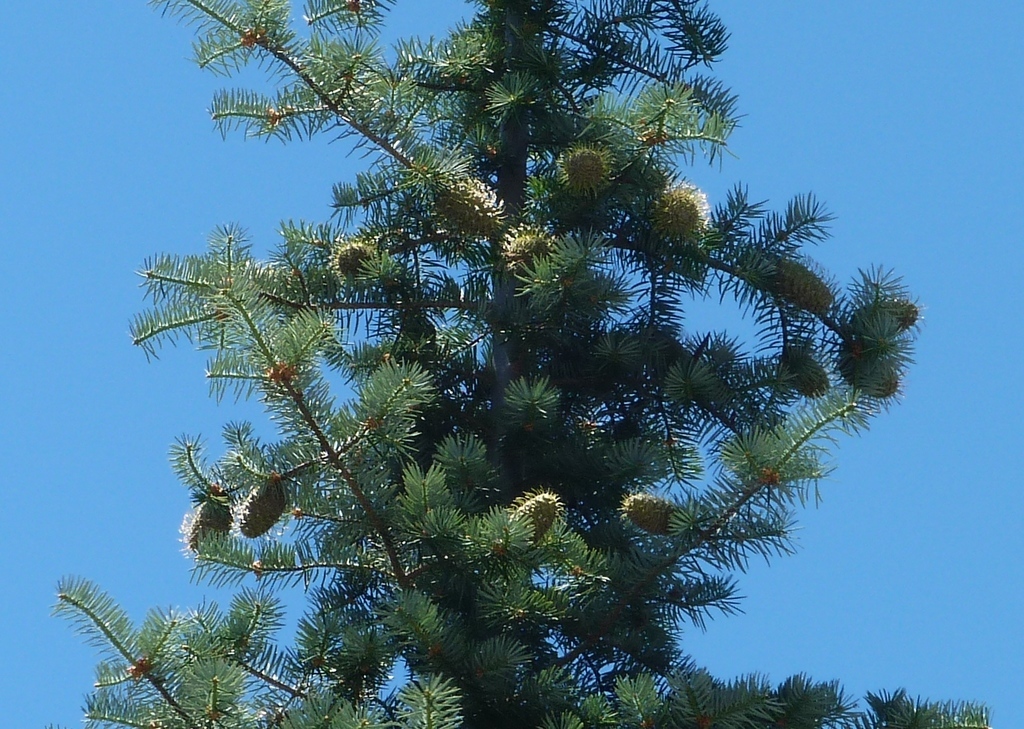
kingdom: Plantae
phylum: Tracheophyta
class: Pinopsida
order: Pinales
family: Pinaceae
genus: Abies
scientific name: Abies bracteata
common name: Bristlecone fir
